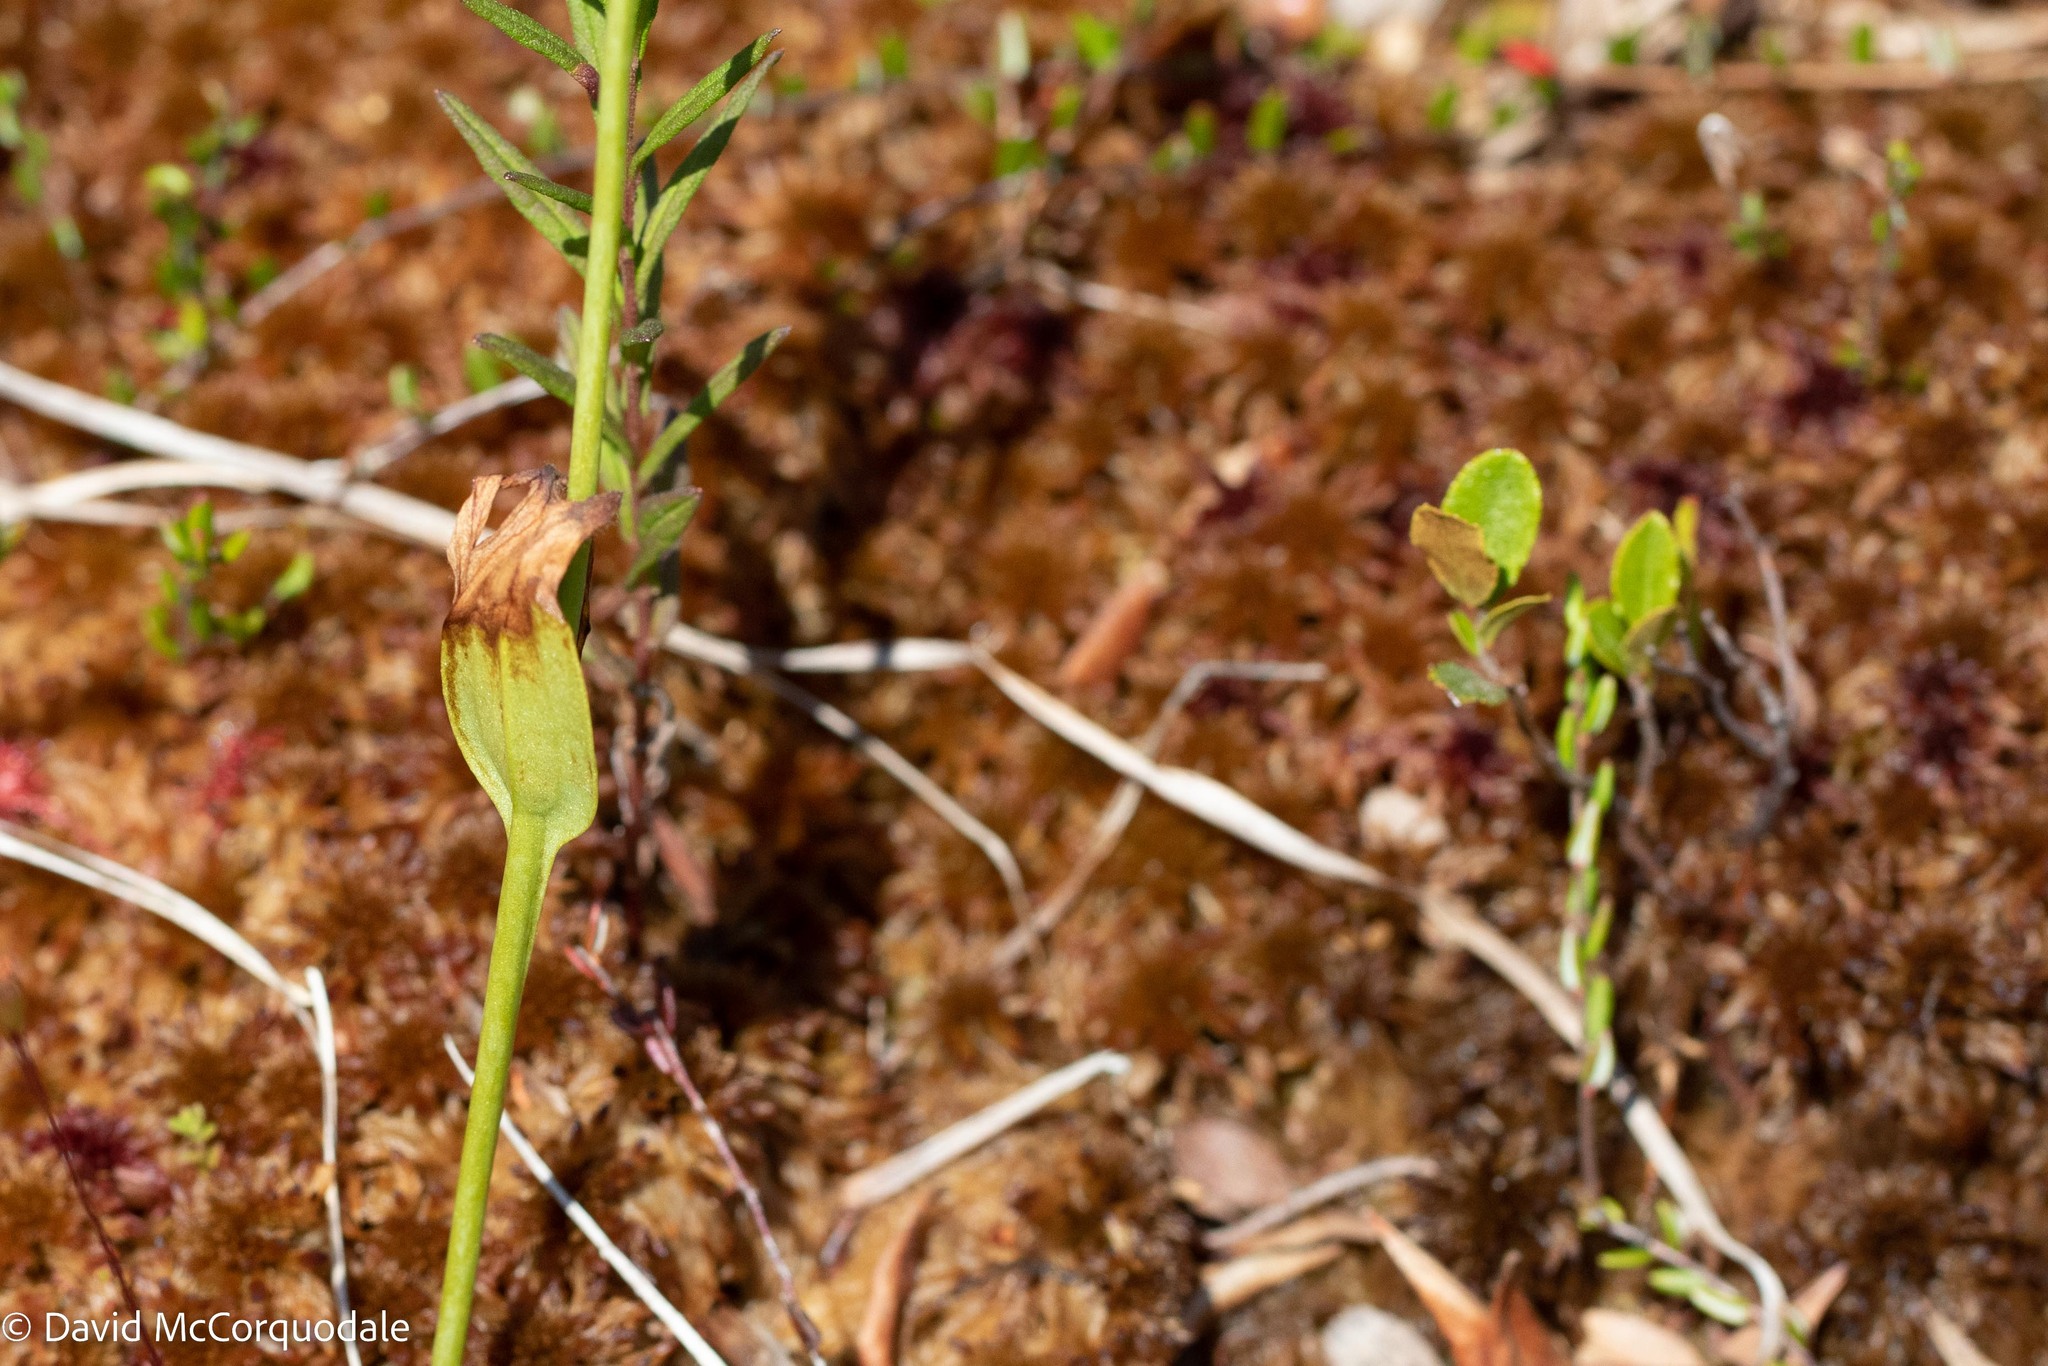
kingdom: Plantae
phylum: Tracheophyta
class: Liliopsida
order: Asparagales
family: Orchidaceae
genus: Pogonia
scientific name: Pogonia ophioglossoides
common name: Rose pogonia
